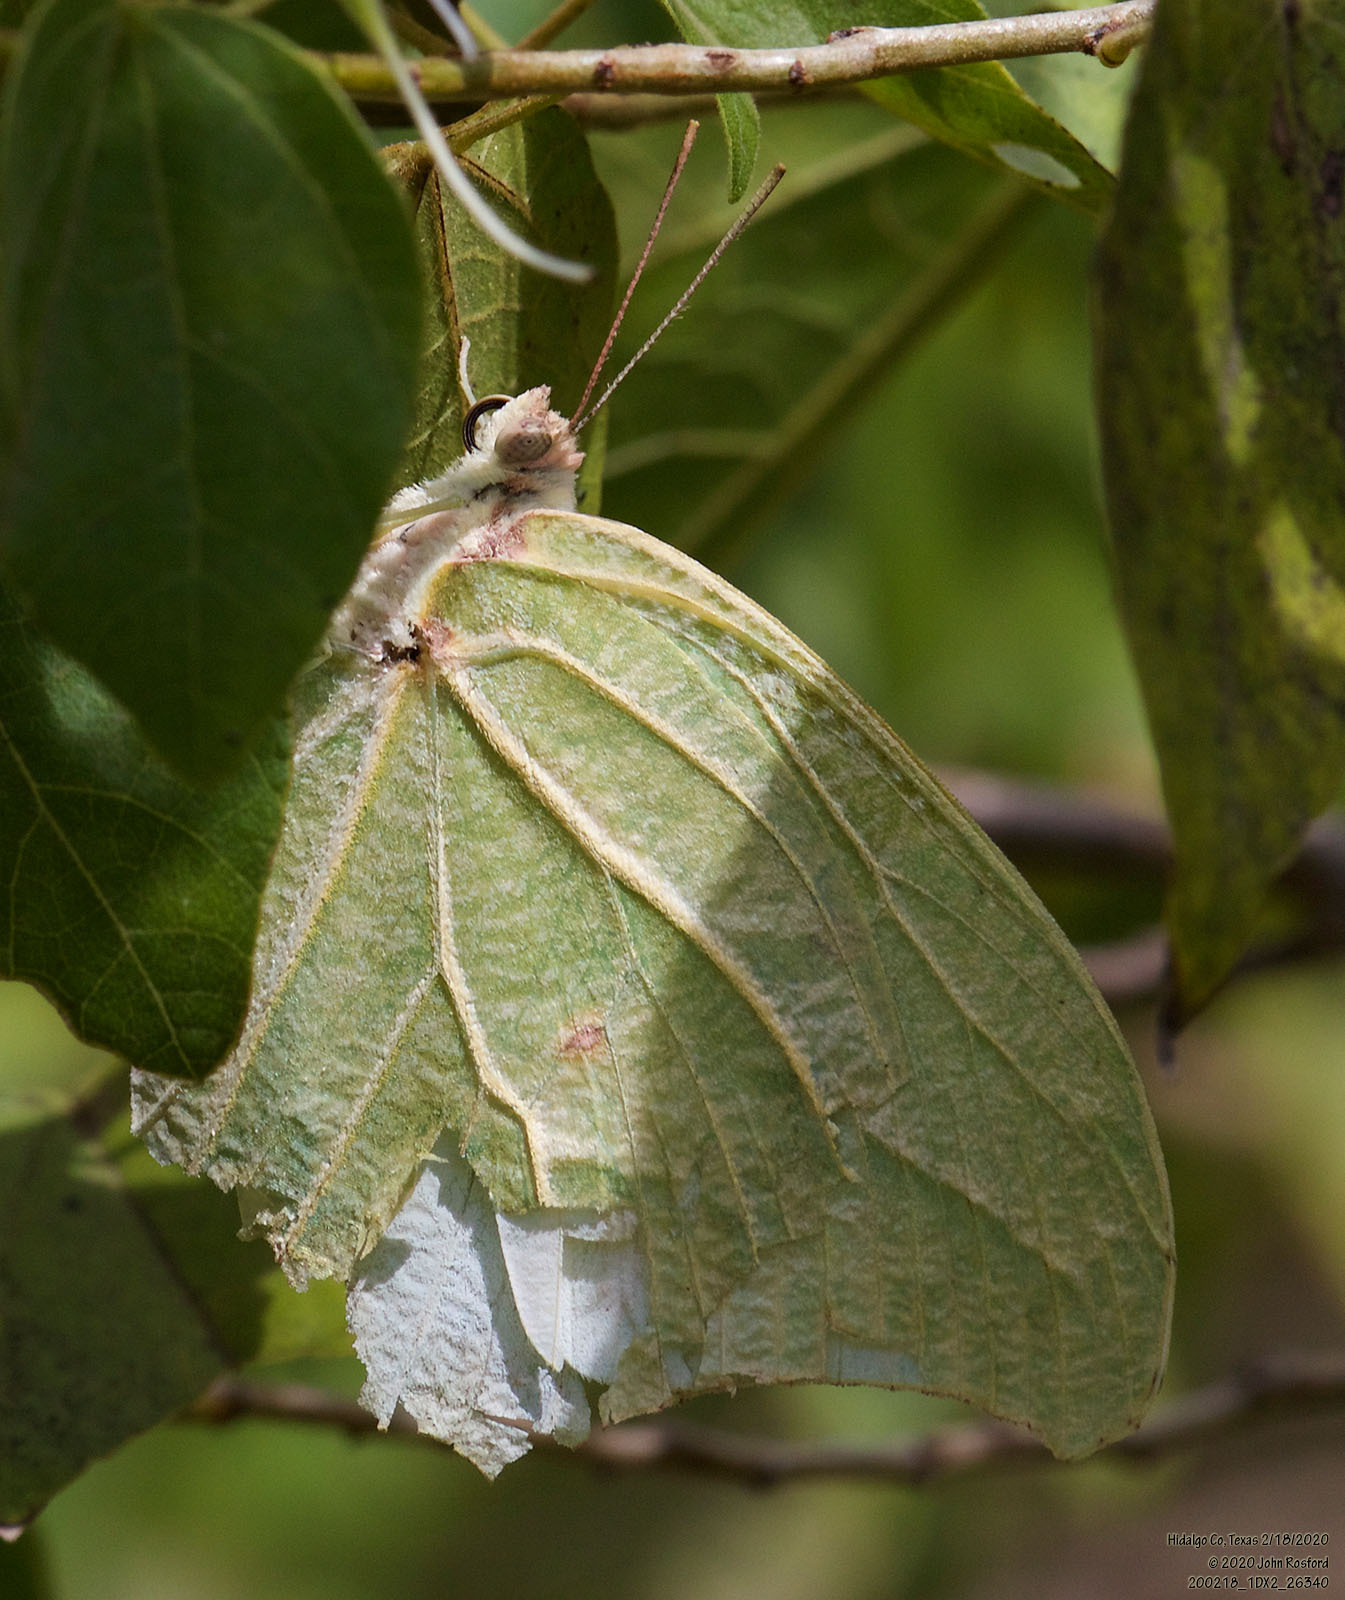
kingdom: Animalia
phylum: Arthropoda
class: Insecta
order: Lepidoptera
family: Pieridae
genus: Anteos
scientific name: Anteos clorinde
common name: White angled sulphur
